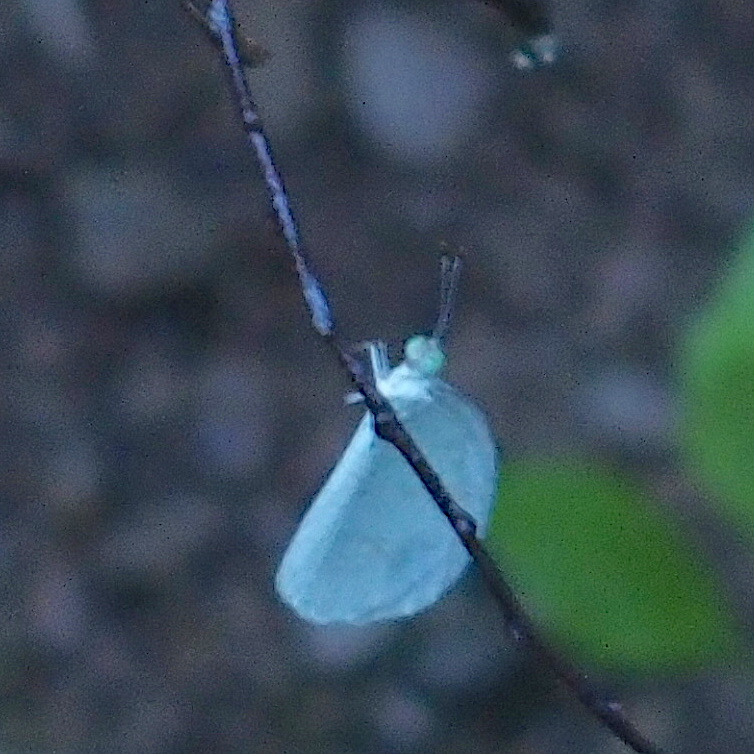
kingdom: Animalia
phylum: Arthropoda
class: Insecta
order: Lepidoptera
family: Pieridae
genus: Leptosia
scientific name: Leptosia nina
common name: Psyche
